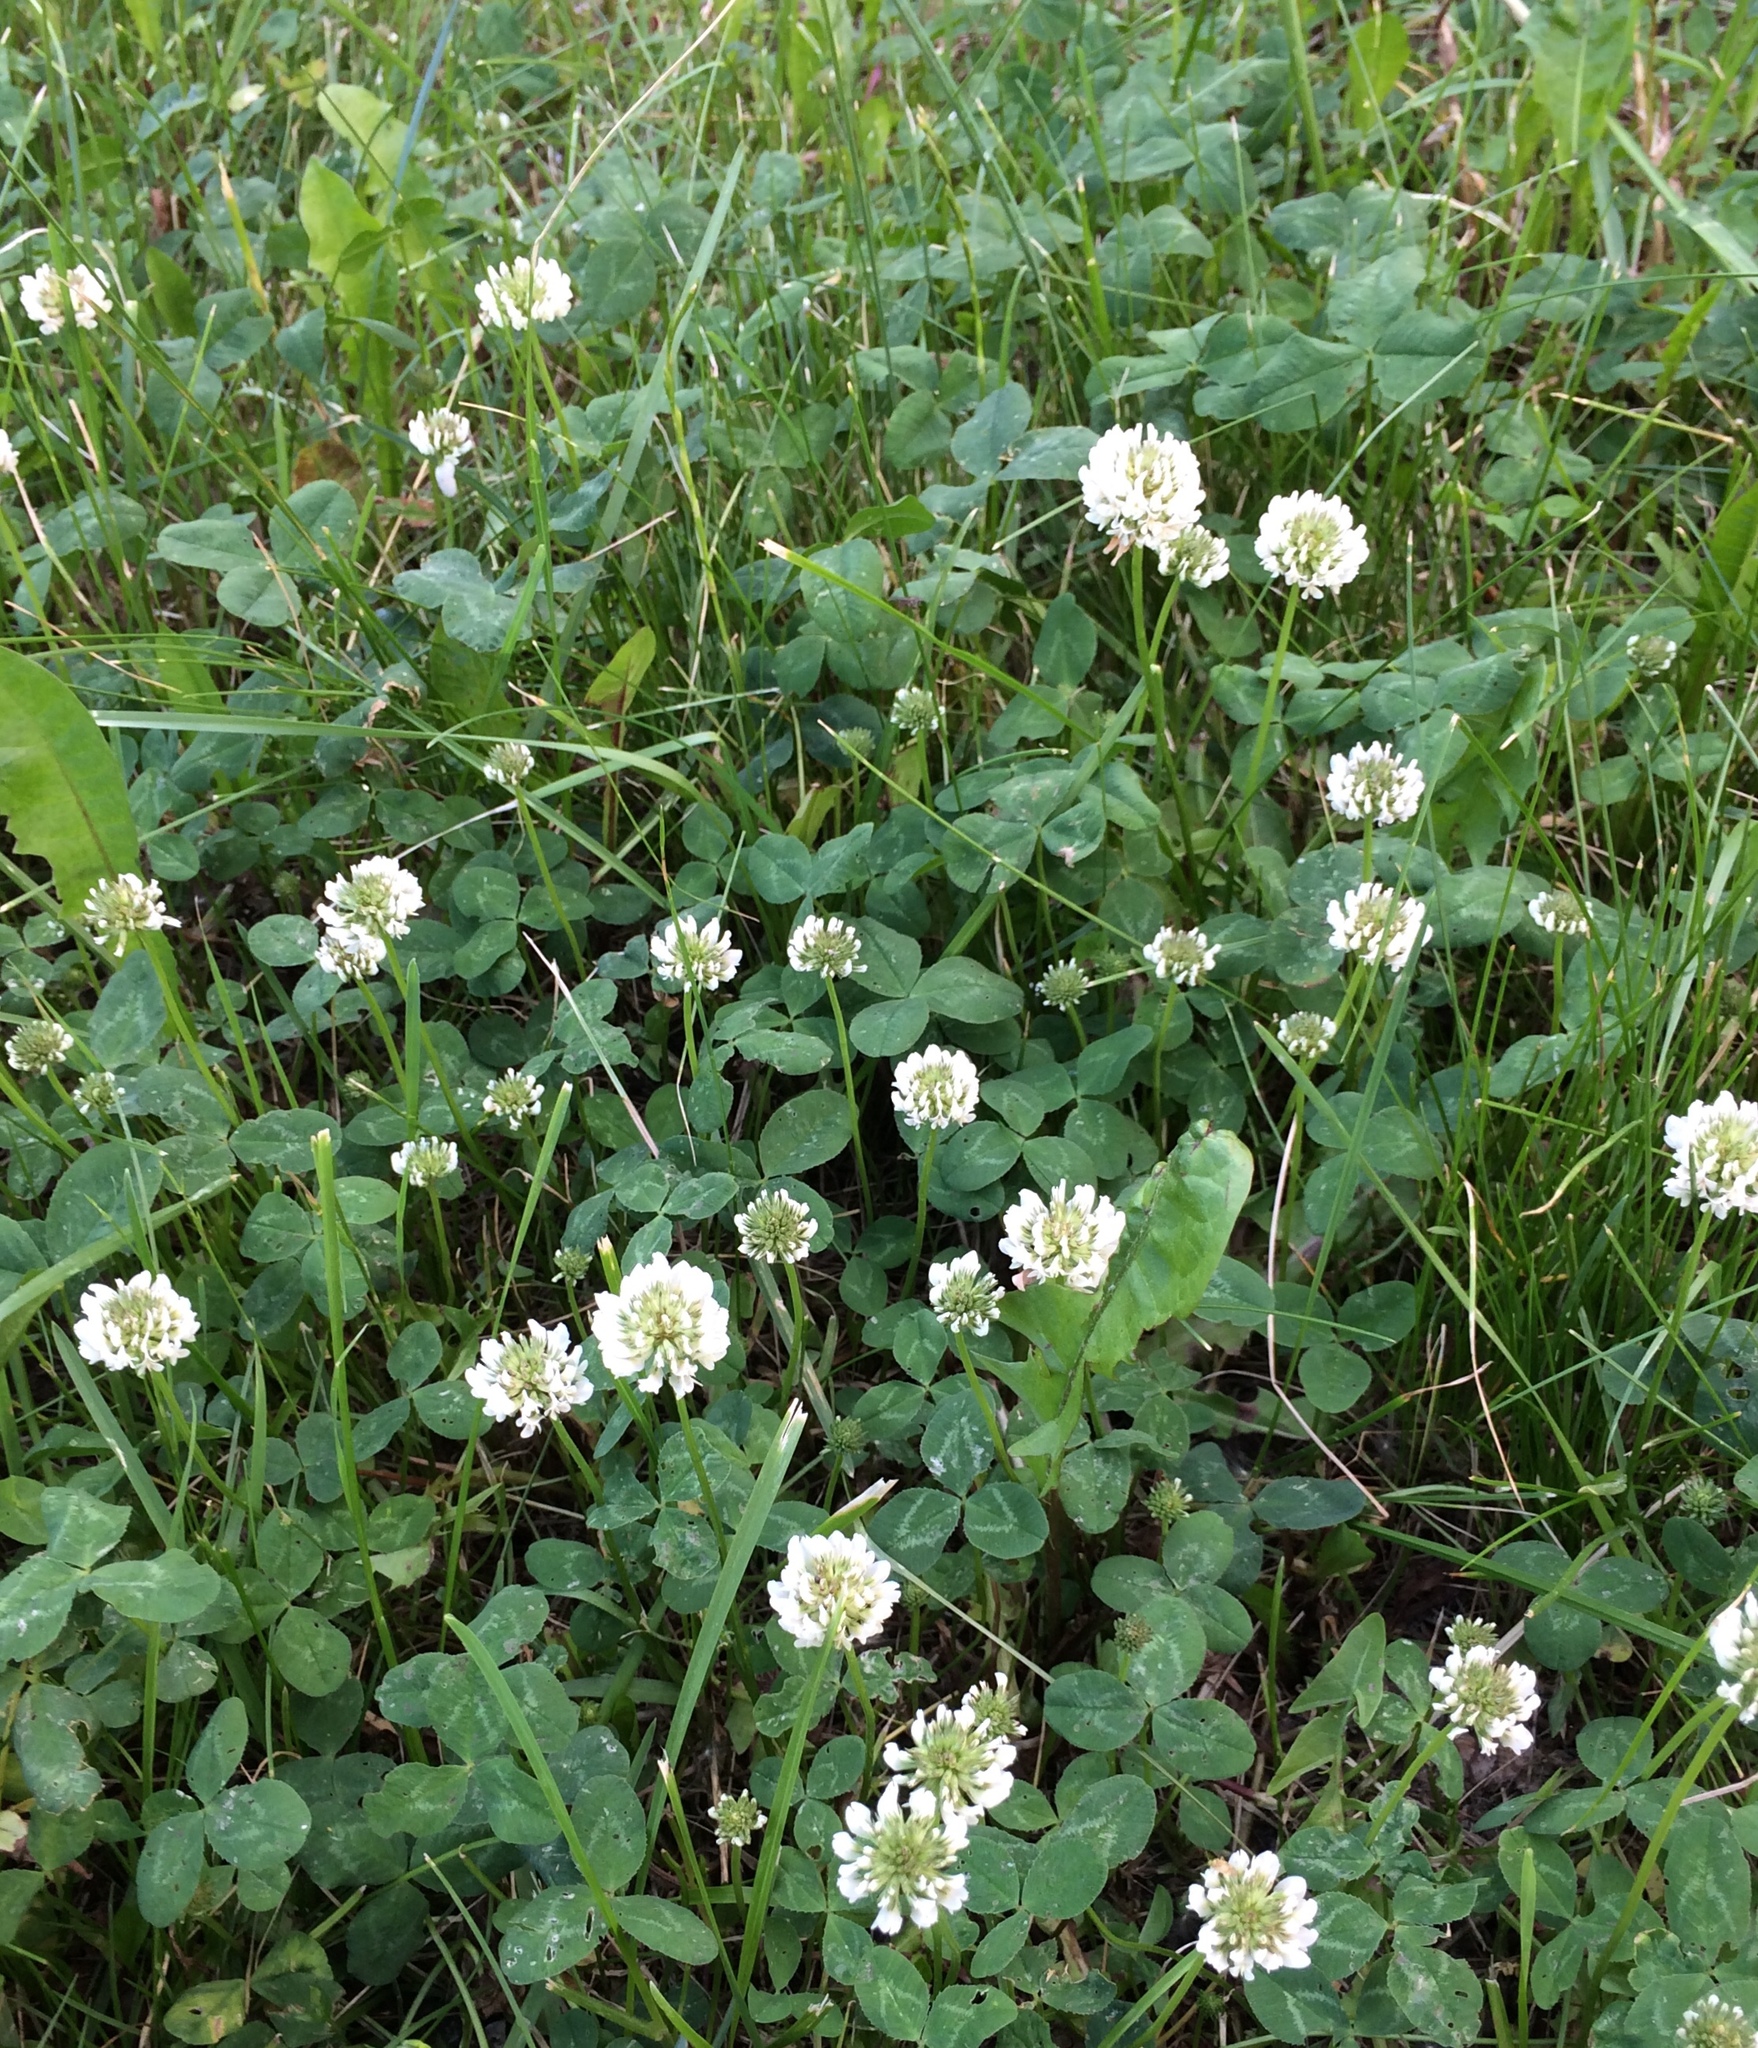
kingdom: Plantae
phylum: Tracheophyta
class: Magnoliopsida
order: Fabales
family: Fabaceae
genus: Trifolium
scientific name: Trifolium repens
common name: White clover
